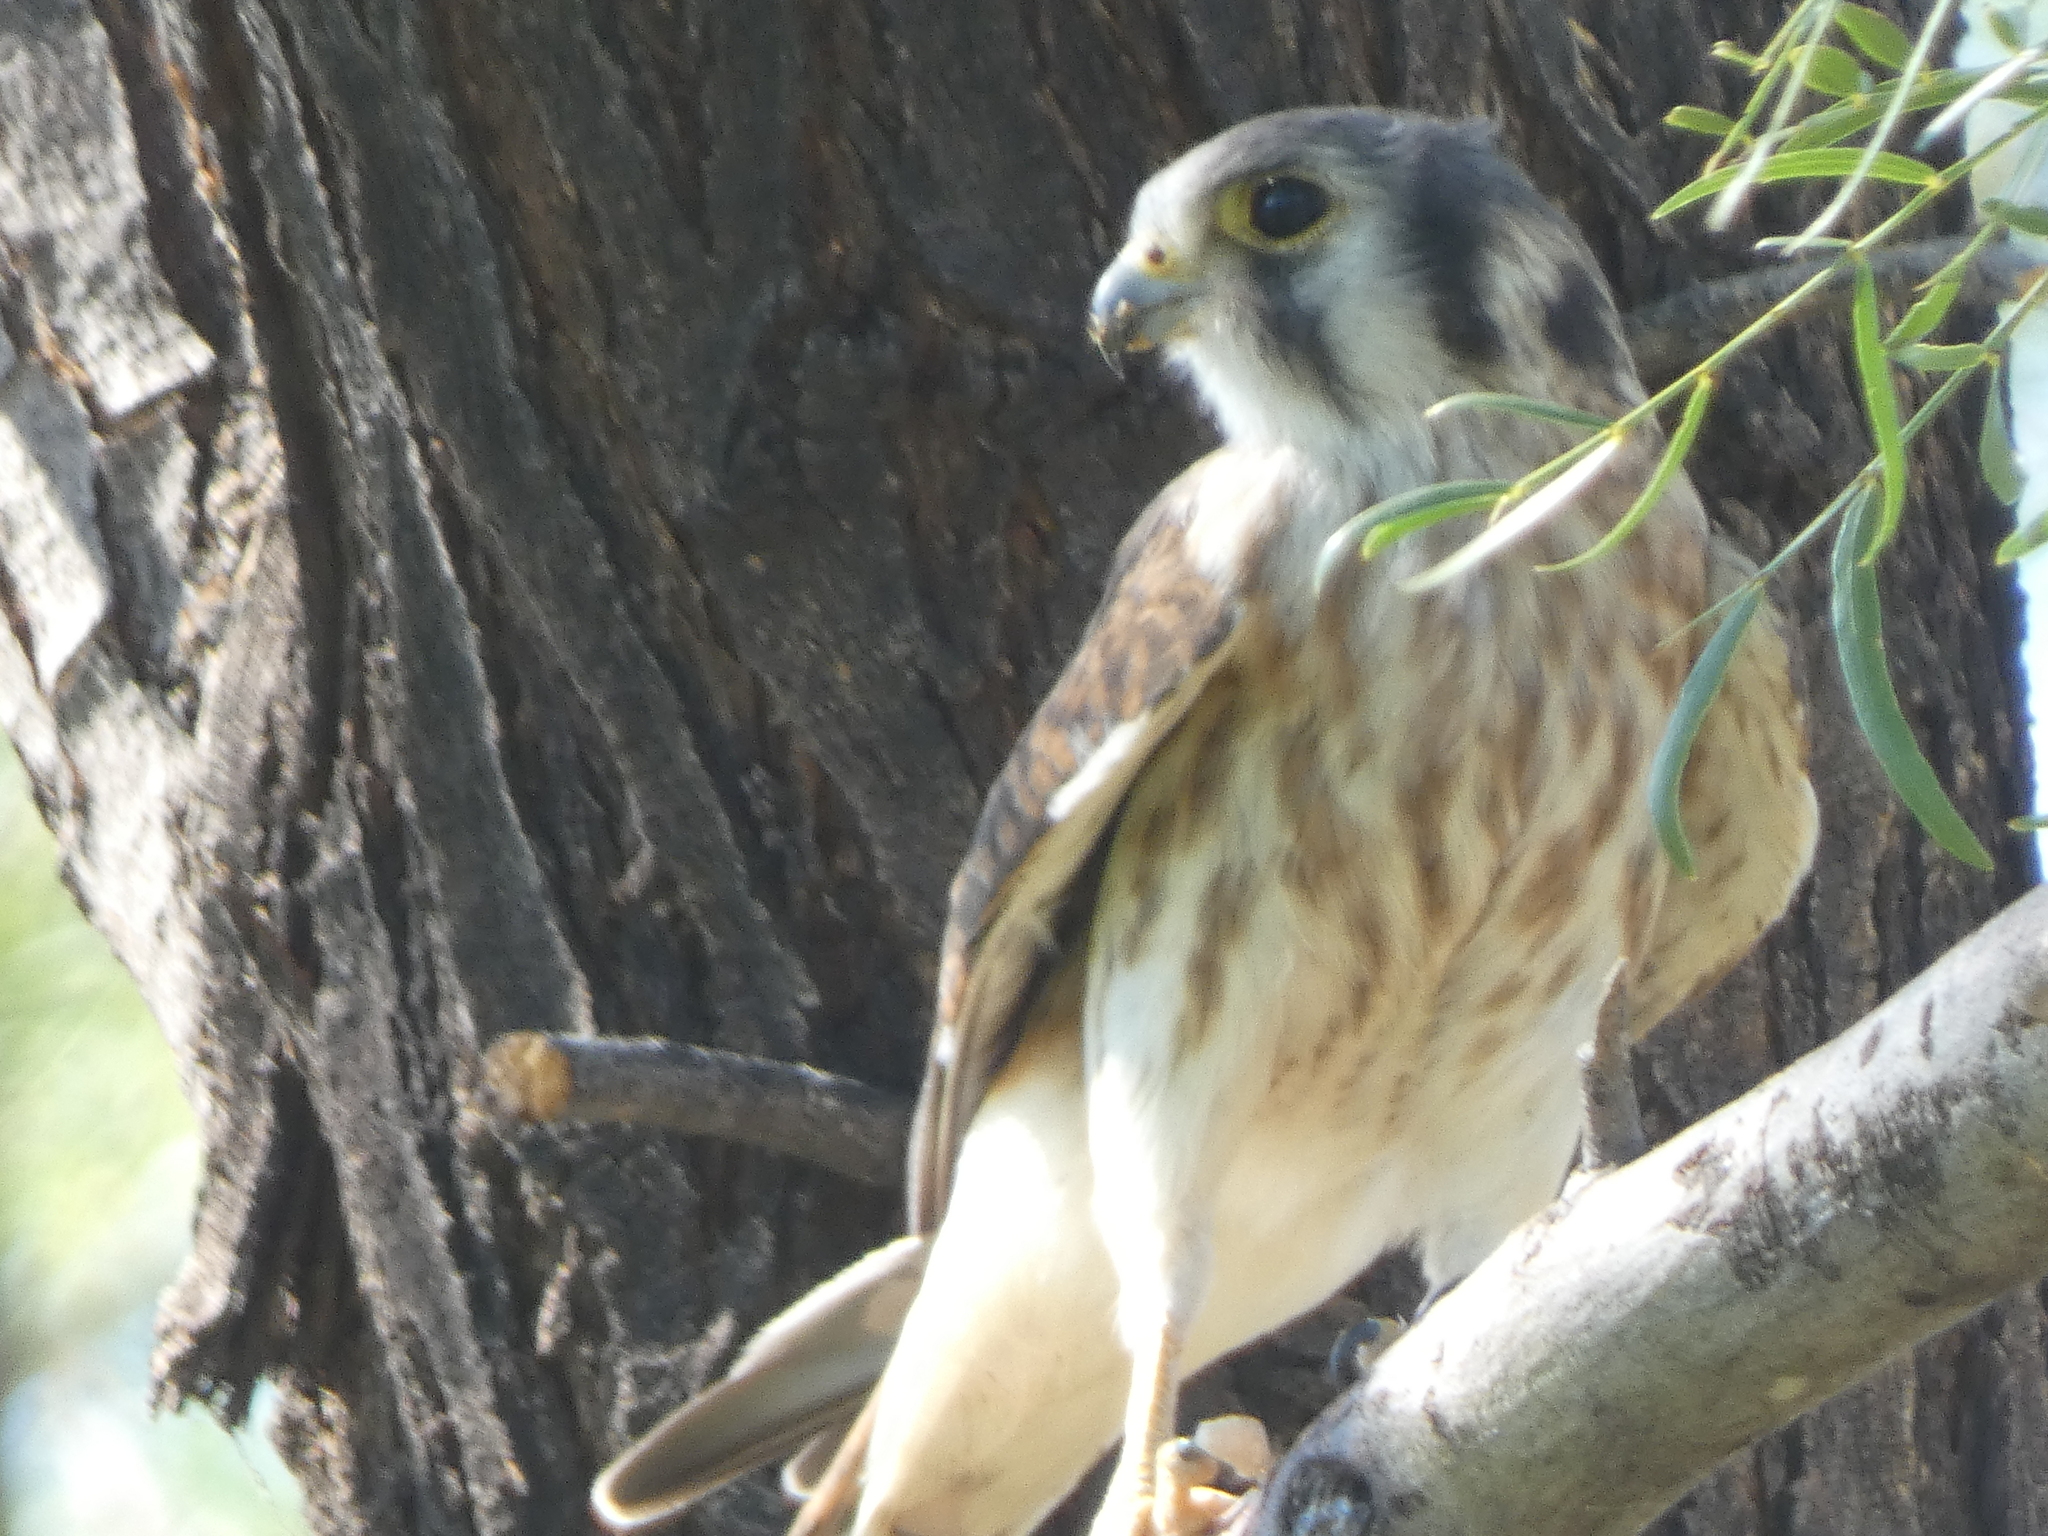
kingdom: Animalia
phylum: Chordata
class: Aves
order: Falconiformes
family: Falconidae
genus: Falco
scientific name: Falco sparverius
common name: American kestrel
